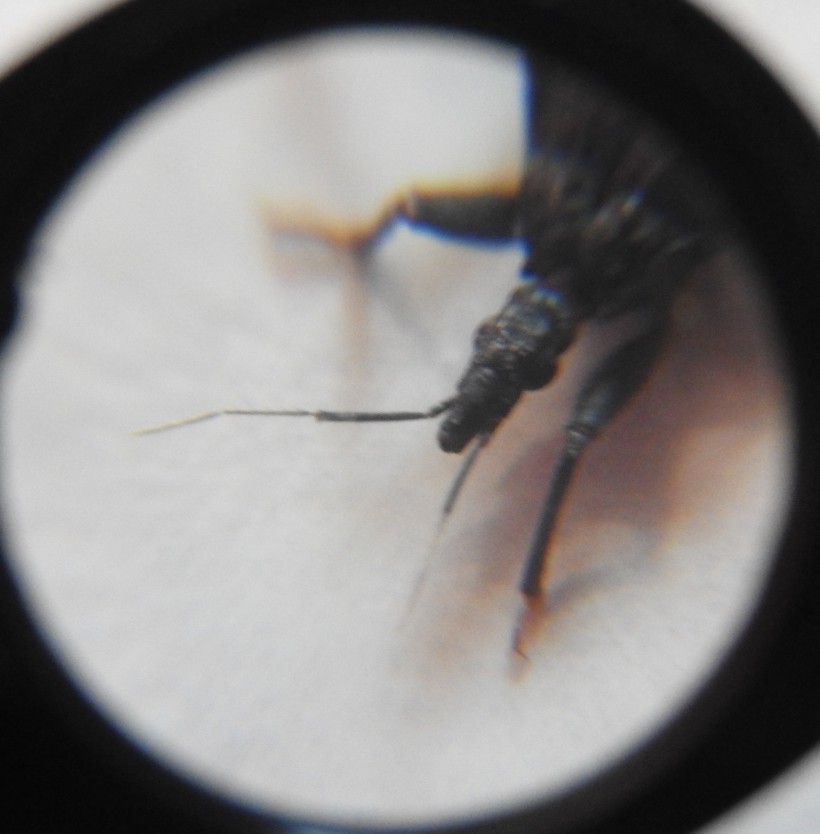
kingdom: Animalia
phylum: Arthropoda
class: Insecta
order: Hemiptera
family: Reduviidae
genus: Triatoma
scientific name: Triatoma barberi
